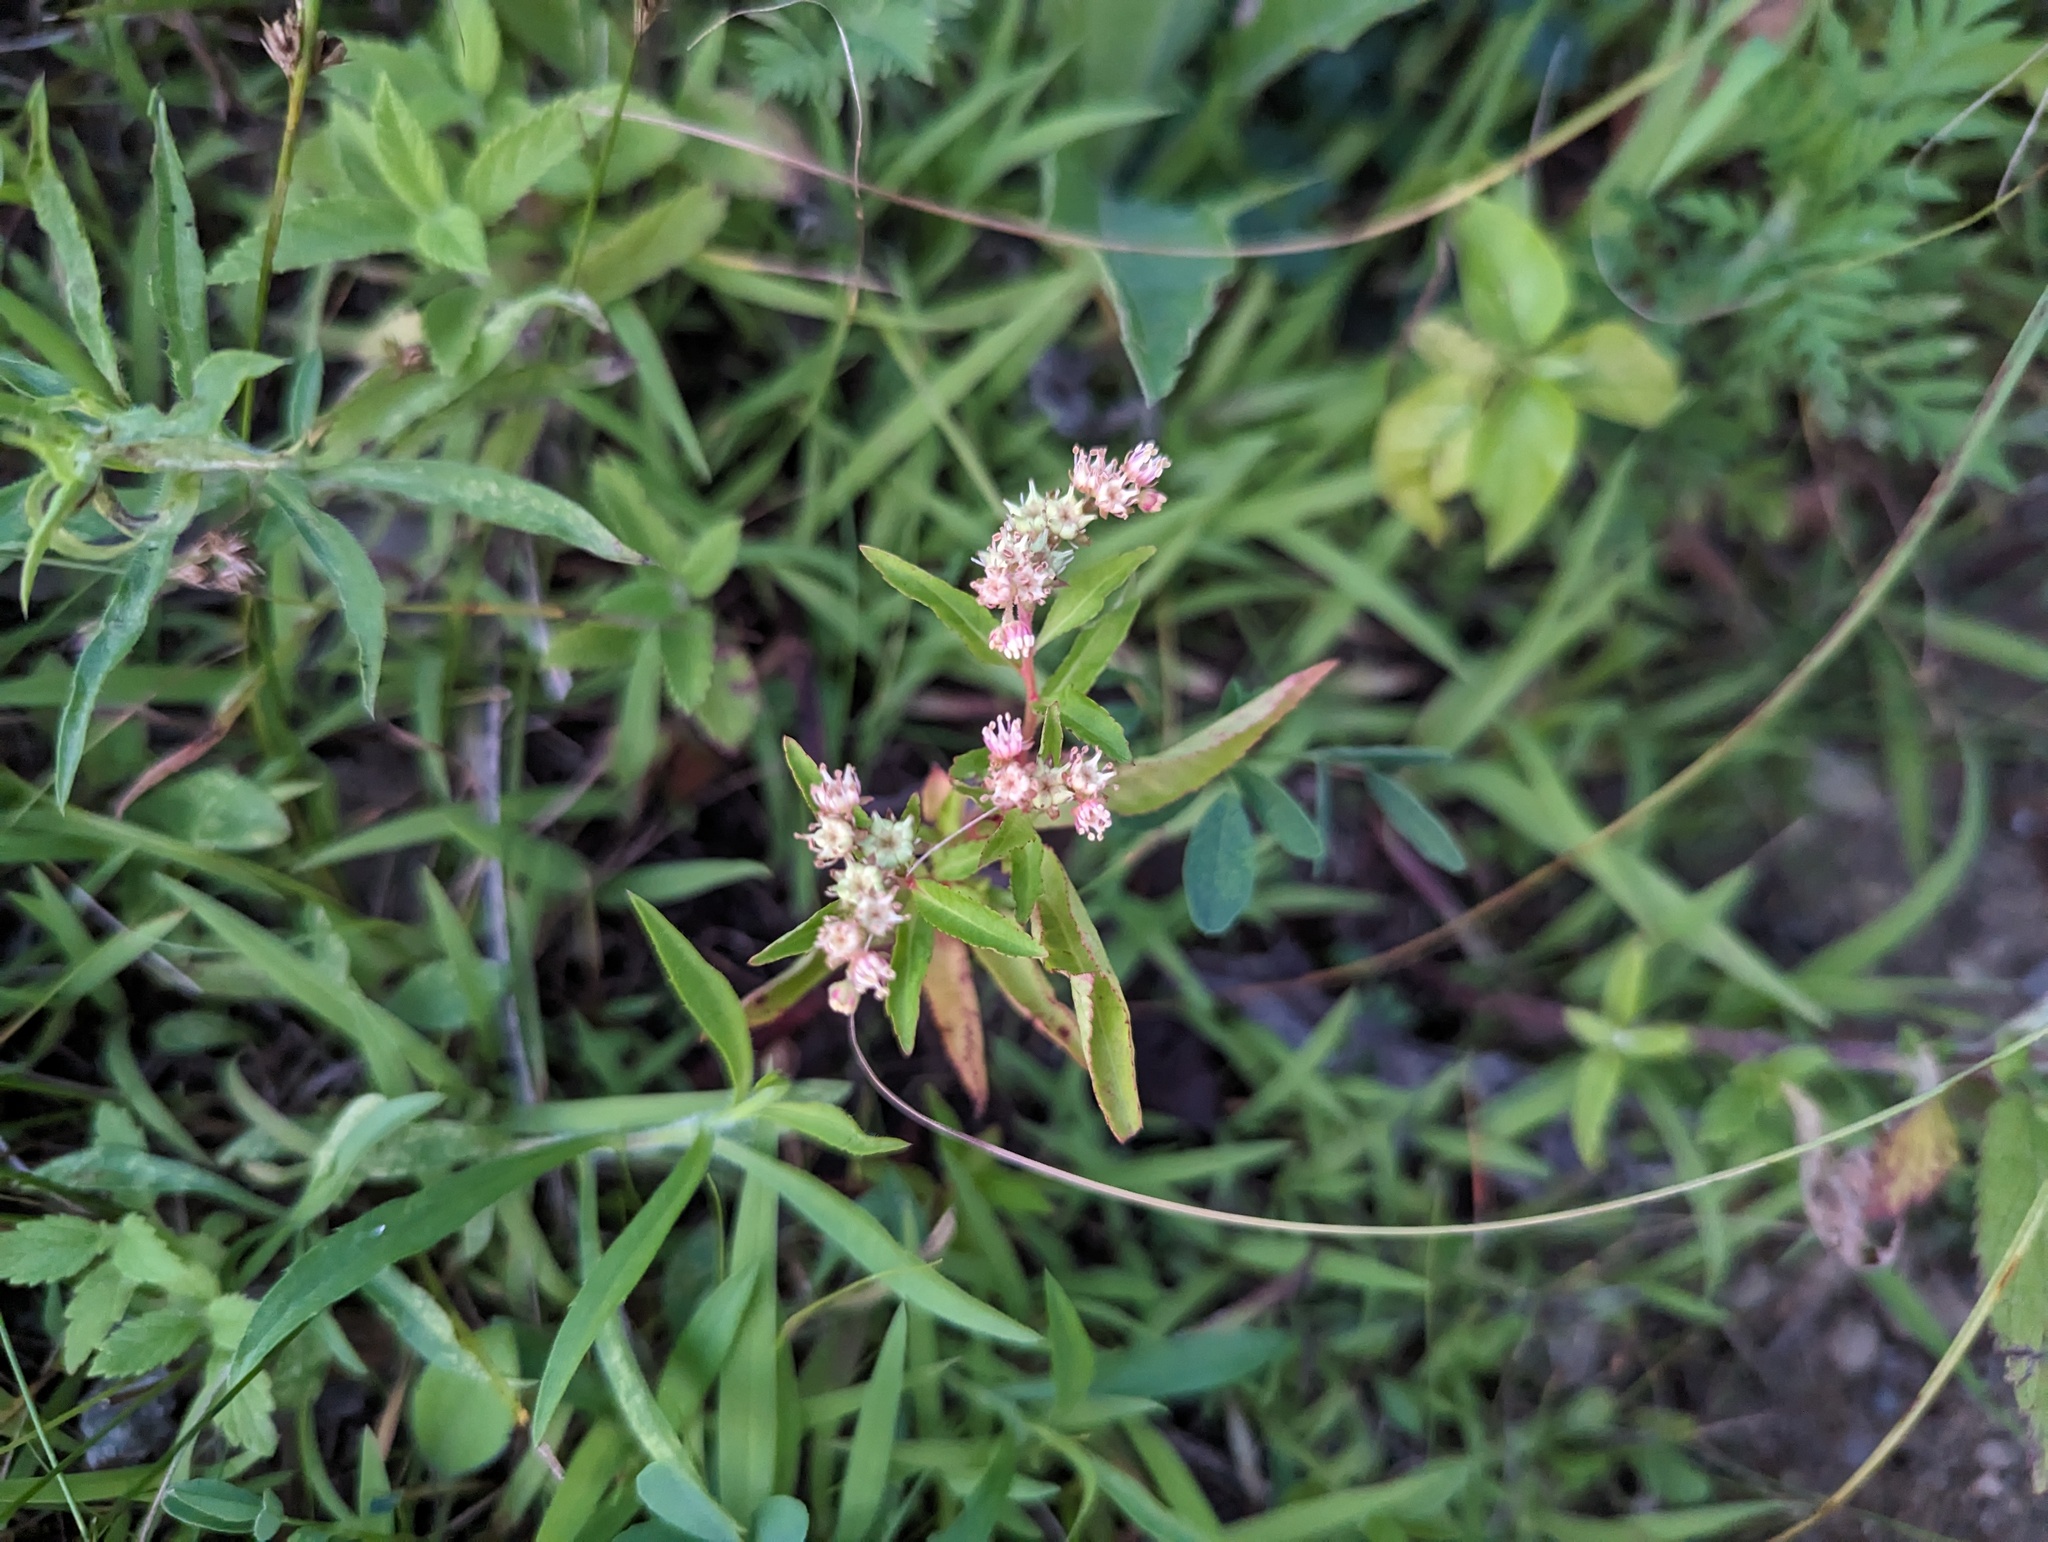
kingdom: Plantae
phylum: Tracheophyta
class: Magnoliopsida
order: Saxifragales
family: Penthoraceae
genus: Penthorum
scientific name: Penthorum sedoides
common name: Ditch stonecrop
